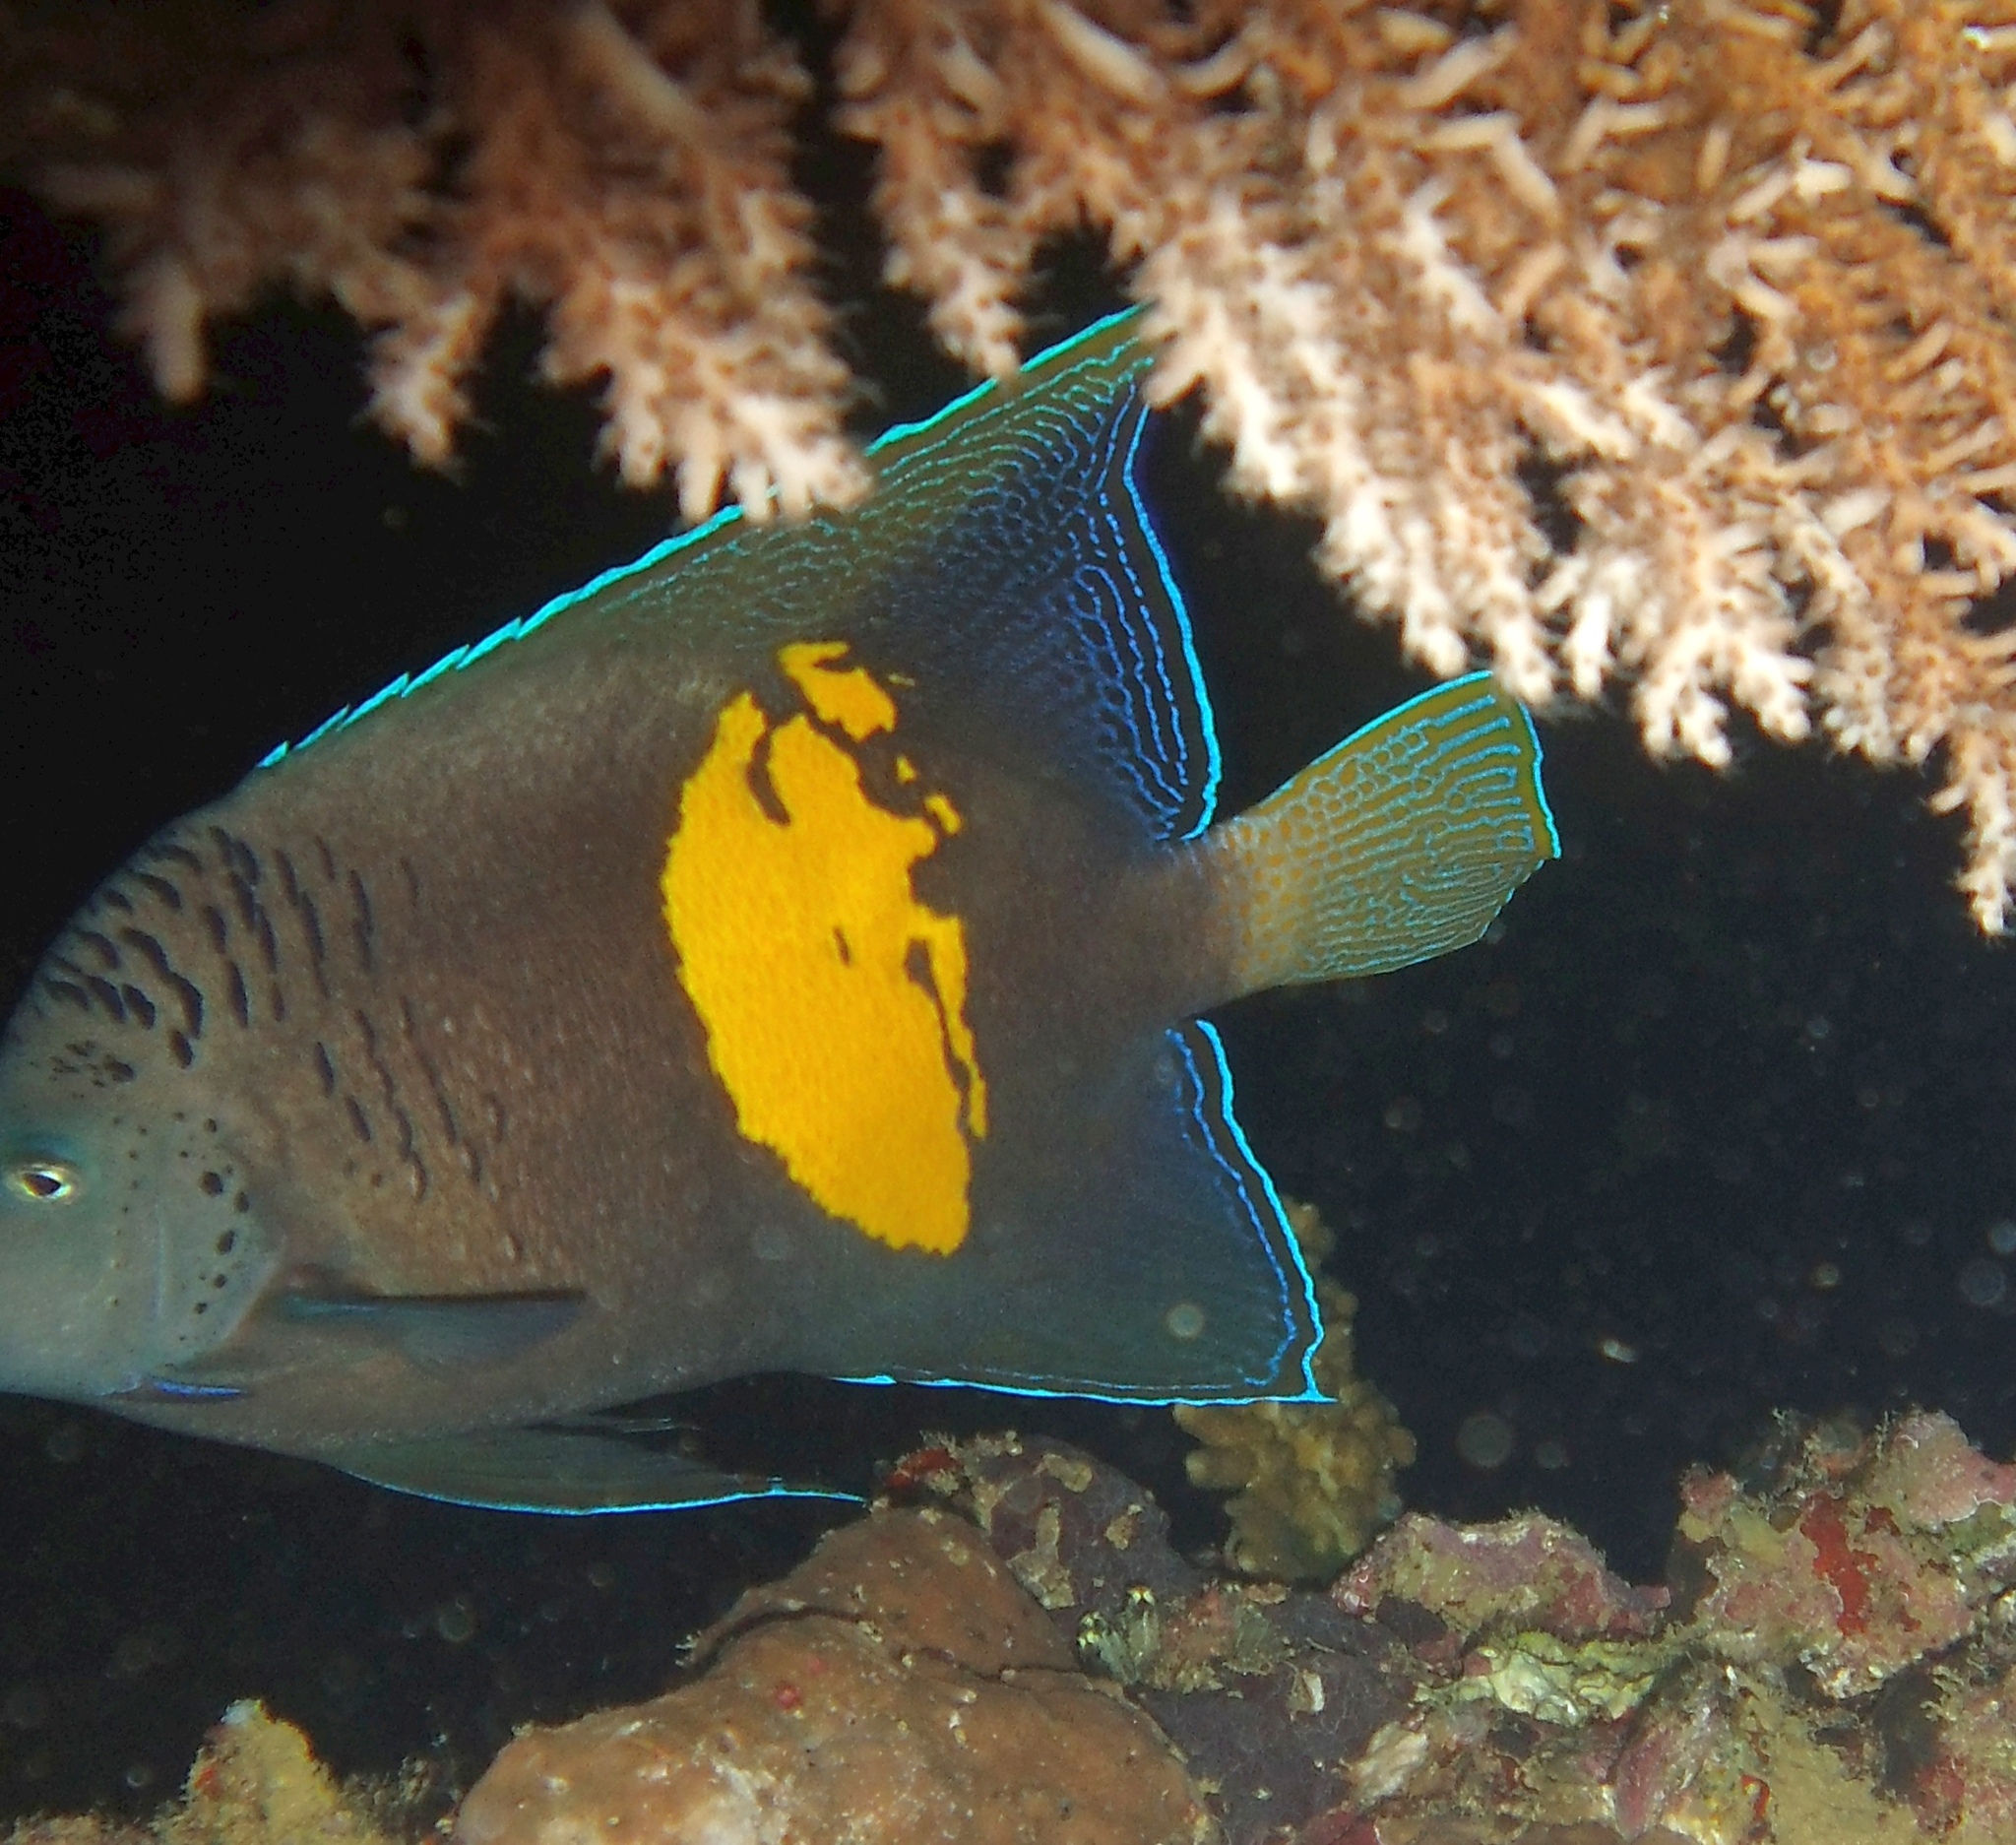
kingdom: Animalia
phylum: Chordata
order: Perciformes
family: Pomacanthidae
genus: Pomacanthus
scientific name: Pomacanthus maculosus
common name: Yellowbar angelfish
